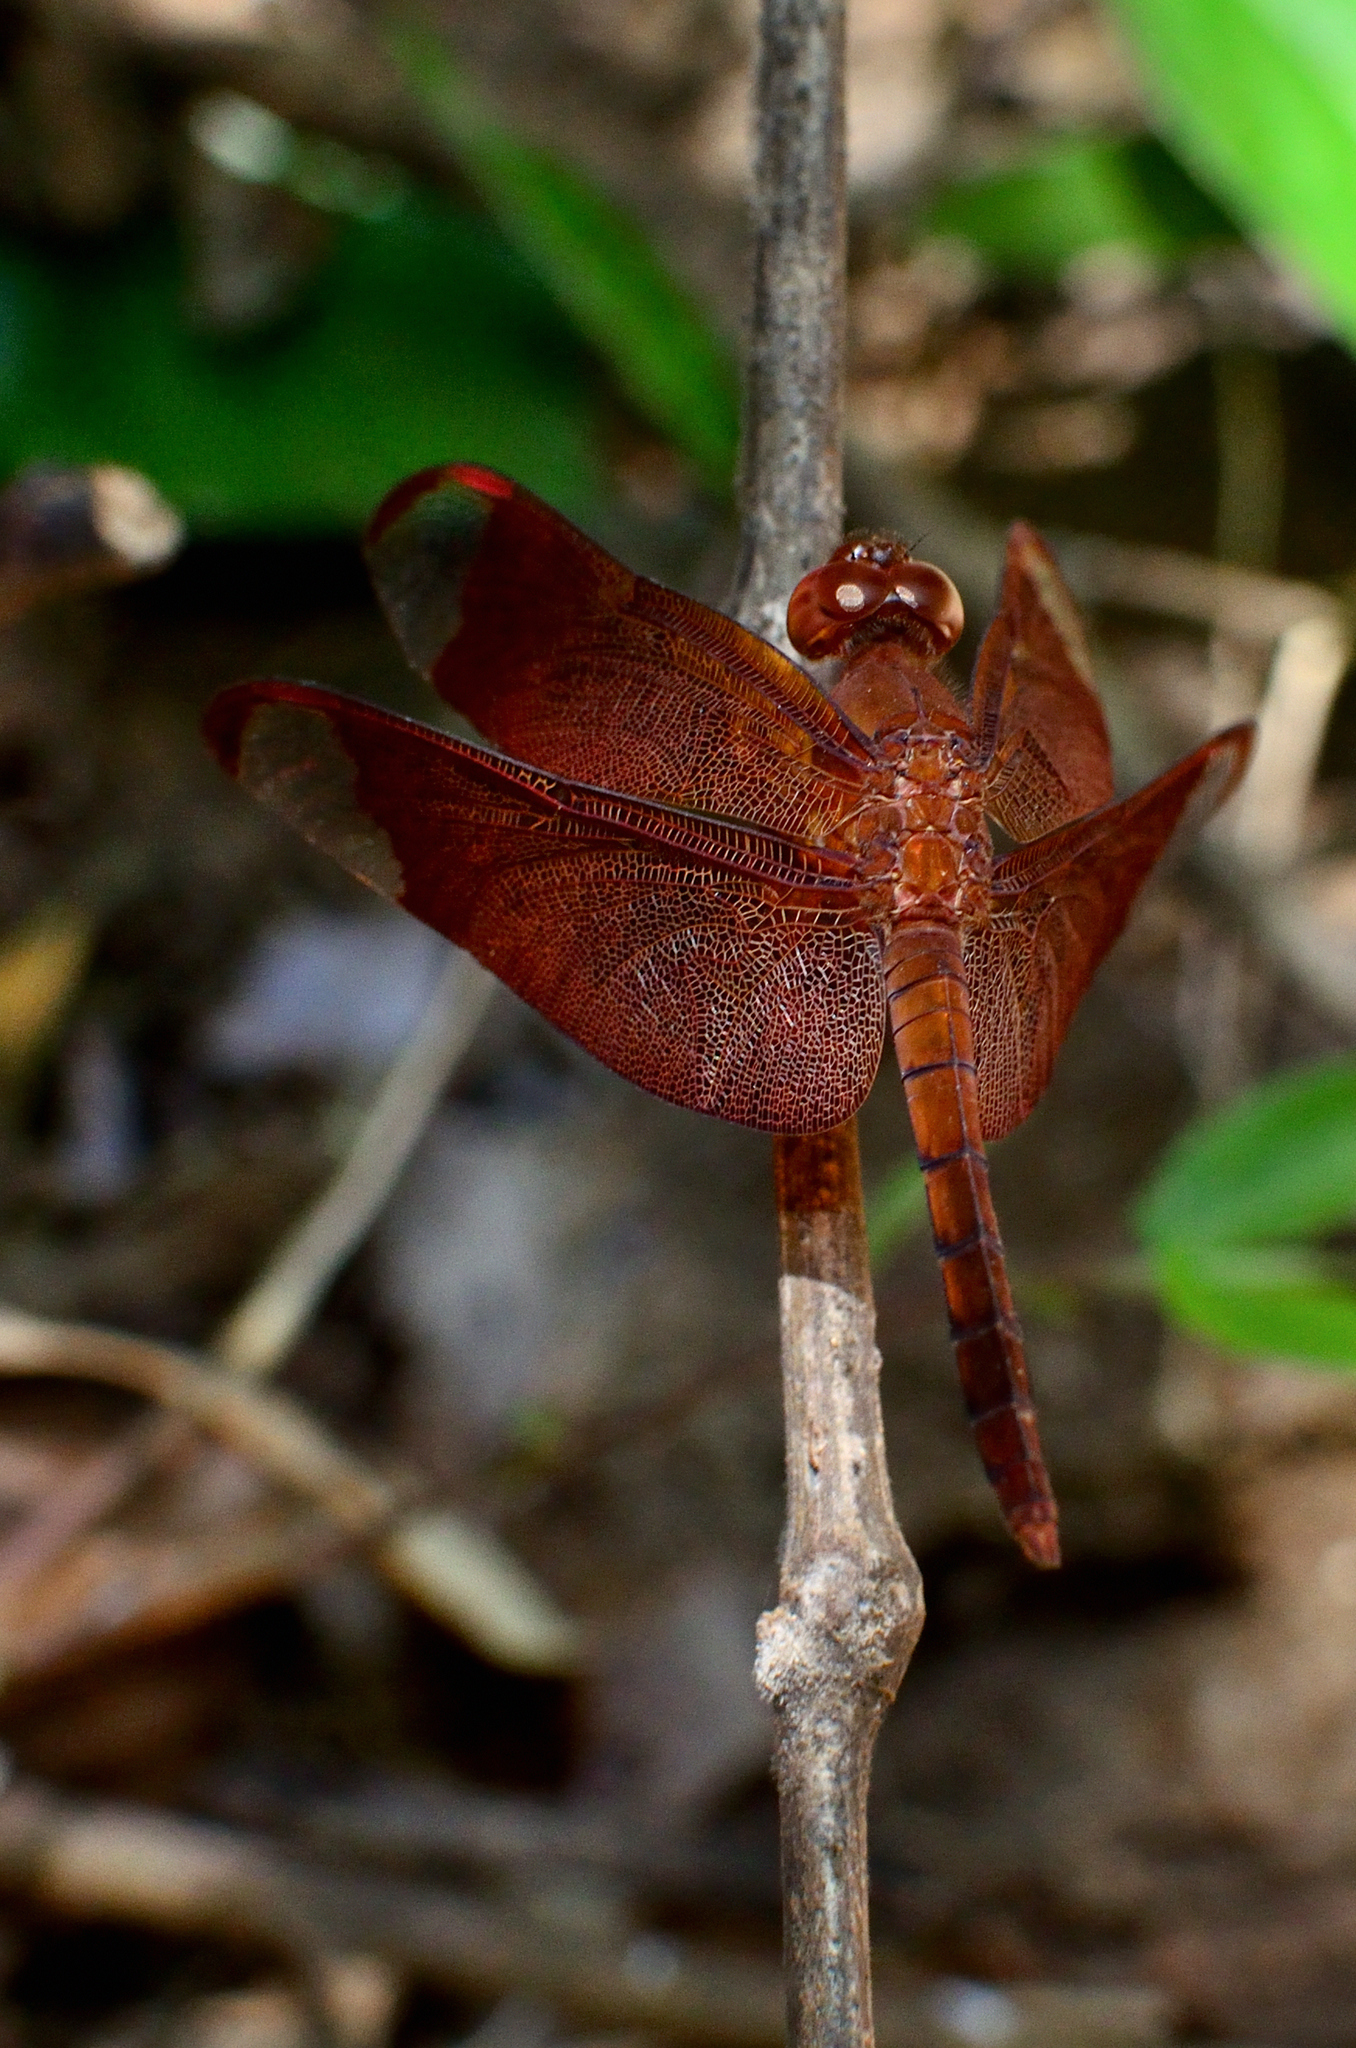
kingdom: Animalia
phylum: Arthropoda
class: Insecta
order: Odonata
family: Libellulidae
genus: Neurothemis
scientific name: Neurothemis fulvia
